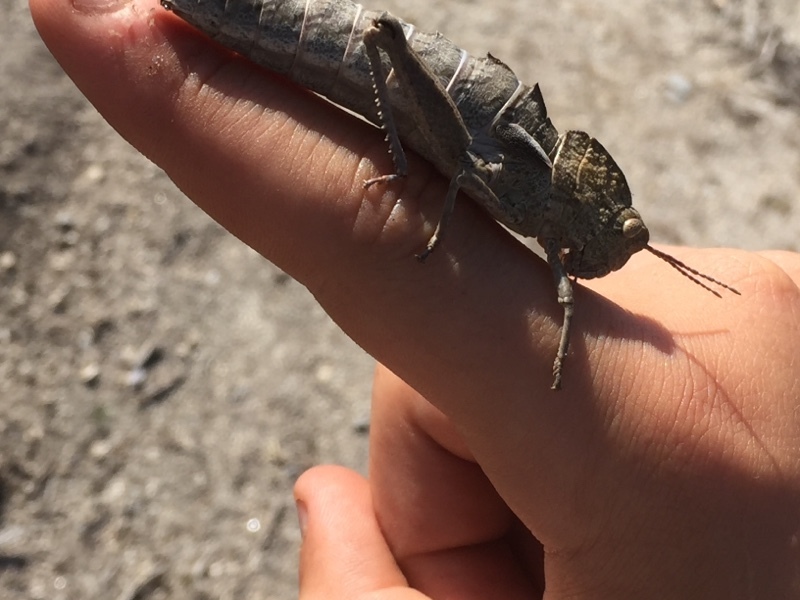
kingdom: Animalia
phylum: Arthropoda
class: Insecta
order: Orthoptera
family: Pamphagidae
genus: Eumigus
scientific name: Eumigus ayresi
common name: Ayres' stone grasshopper
